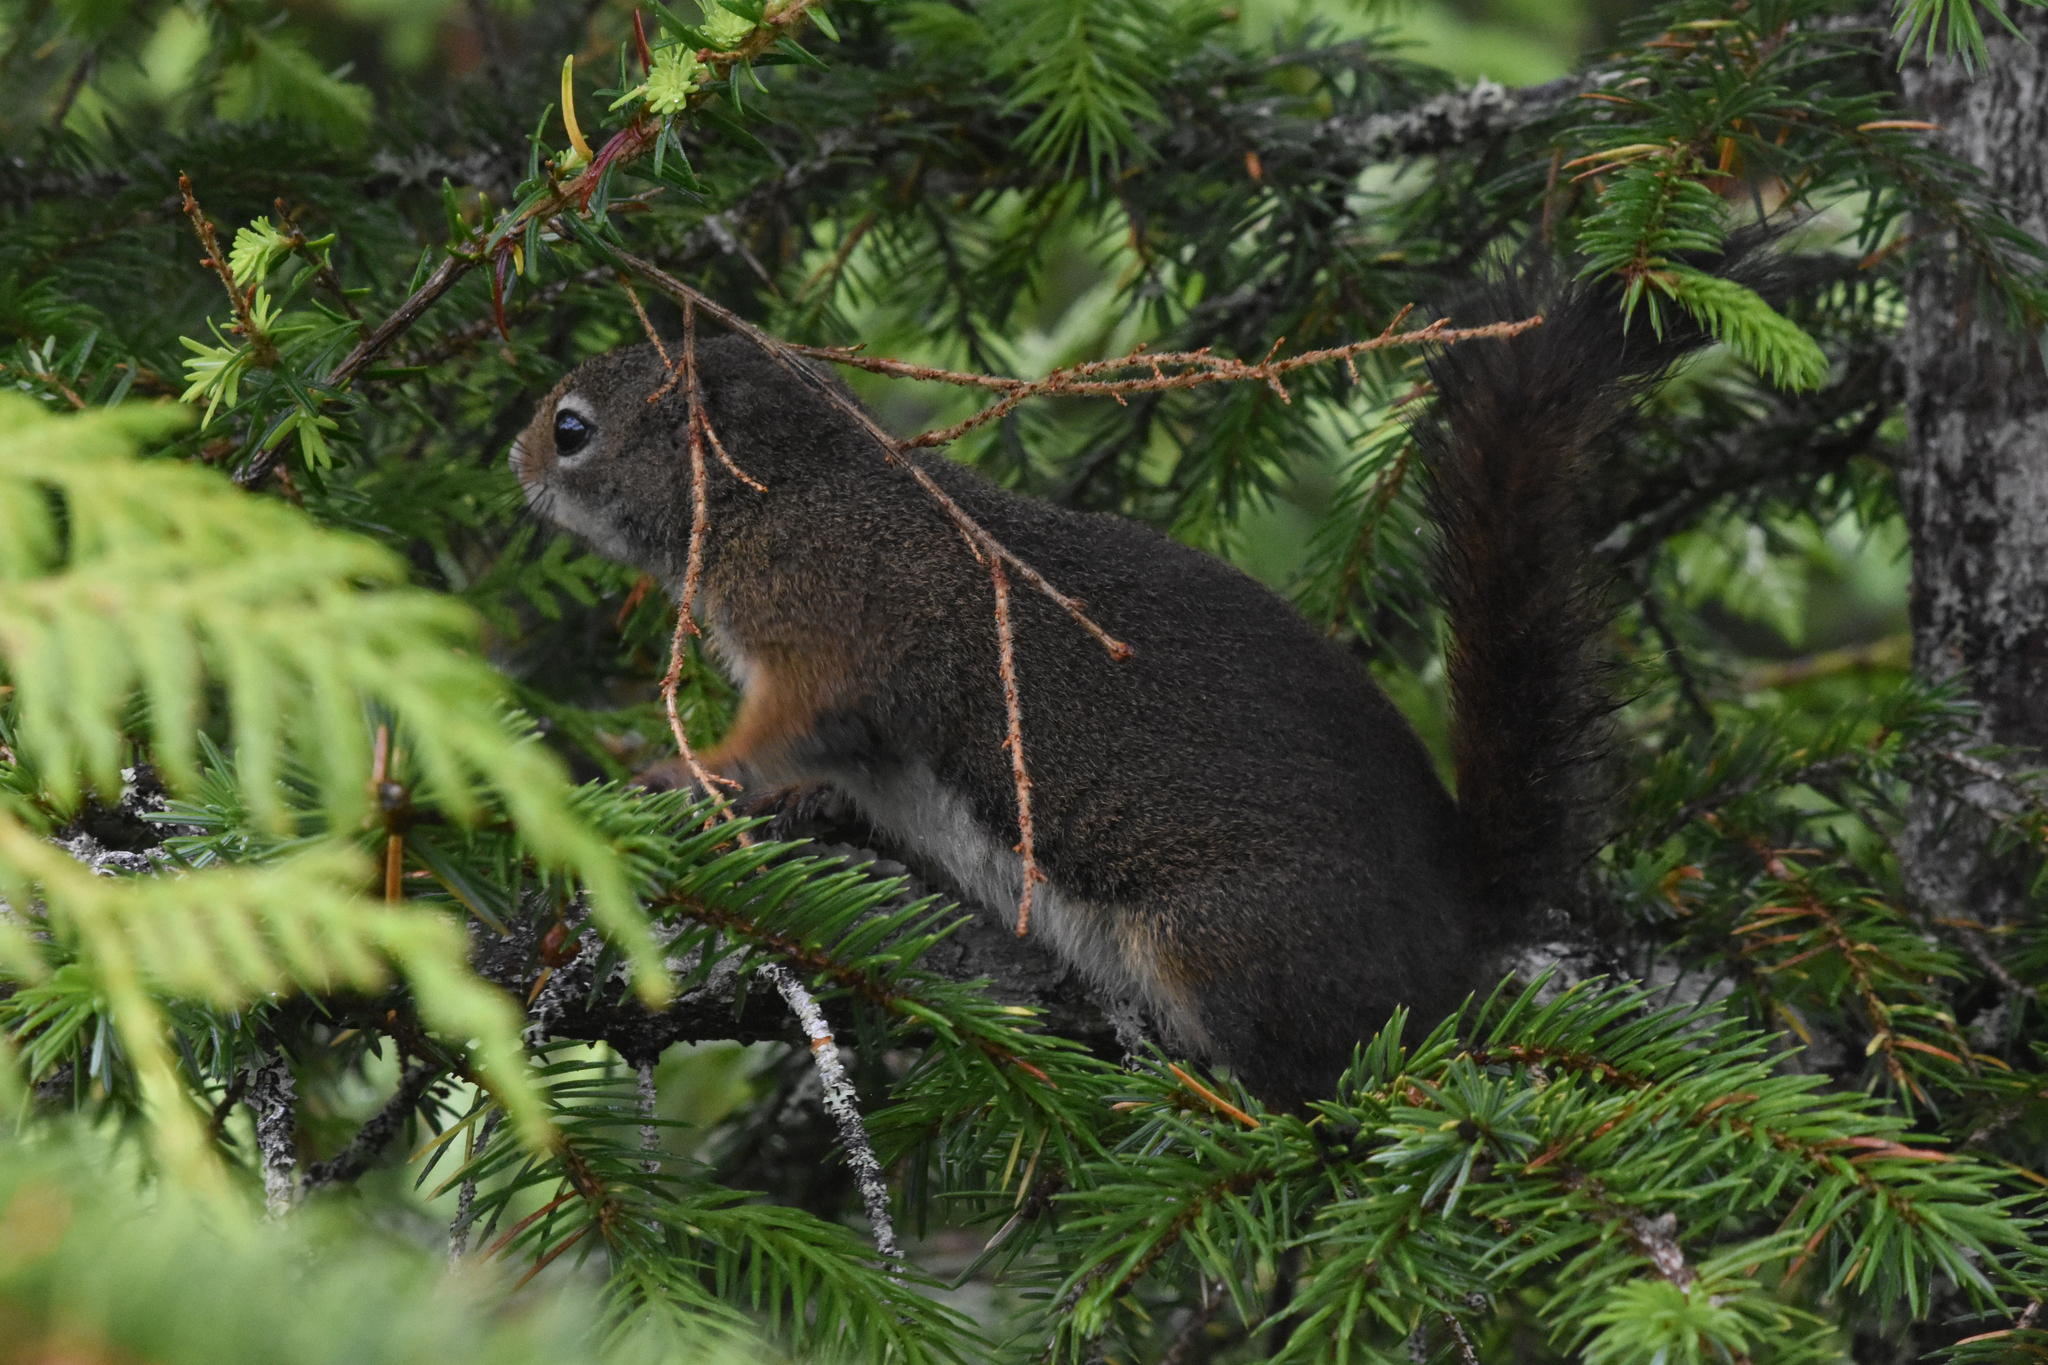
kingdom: Animalia
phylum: Chordata
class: Mammalia
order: Rodentia
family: Sciuridae
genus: Tamiasciurus
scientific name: Tamiasciurus hudsonicus
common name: Red squirrel
